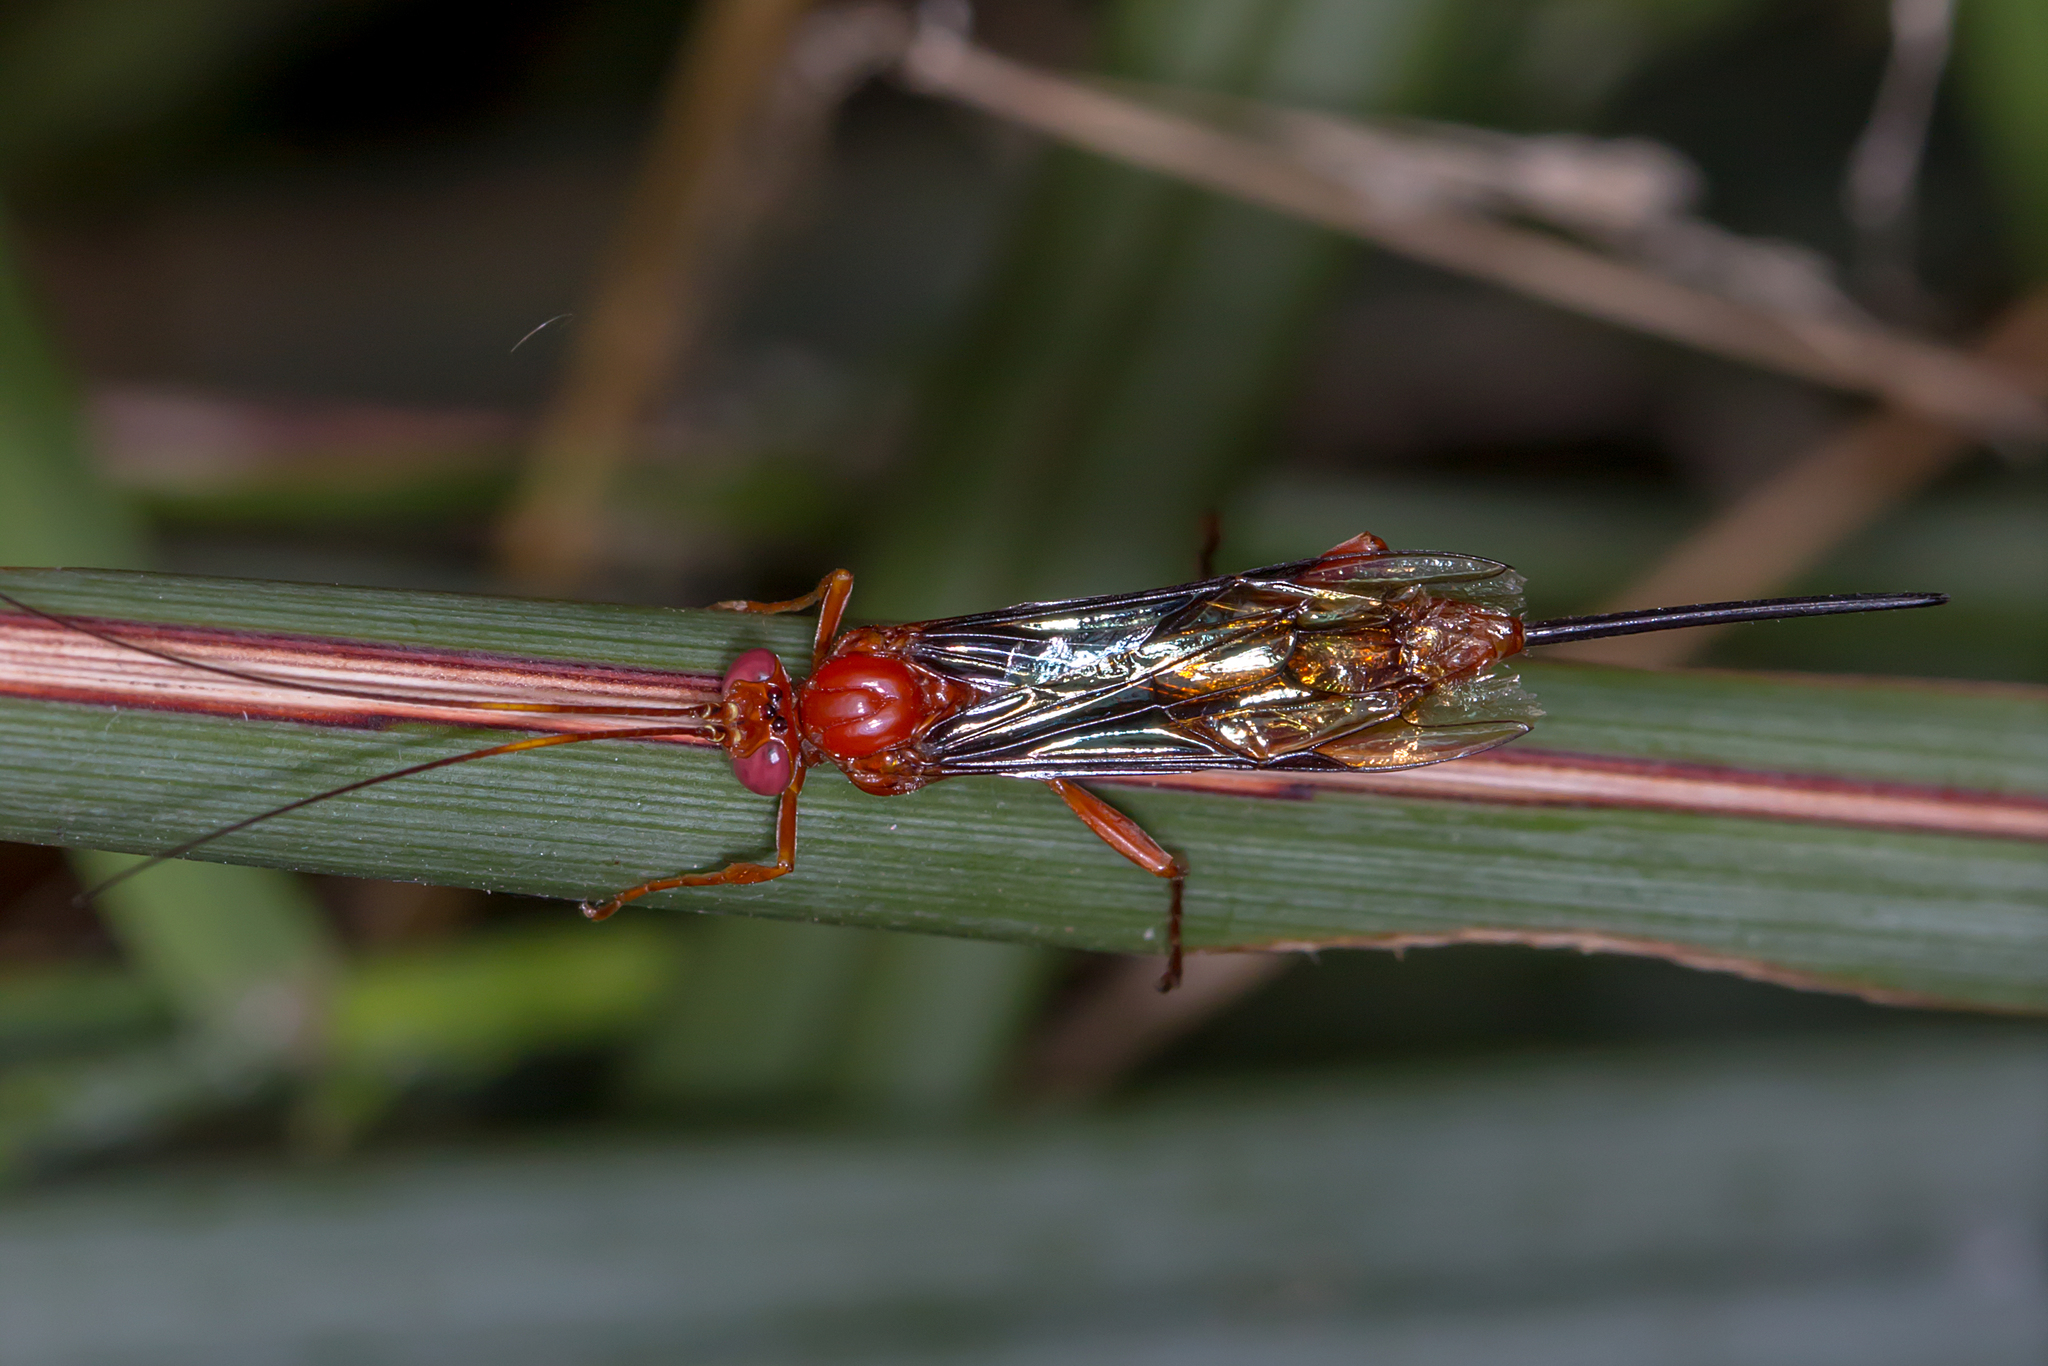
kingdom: Animalia
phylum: Arthropoda
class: Insecta
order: Hymenoptera
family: Ichneumonidae
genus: Lissopimpla
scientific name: Lissopimpla excelsa
